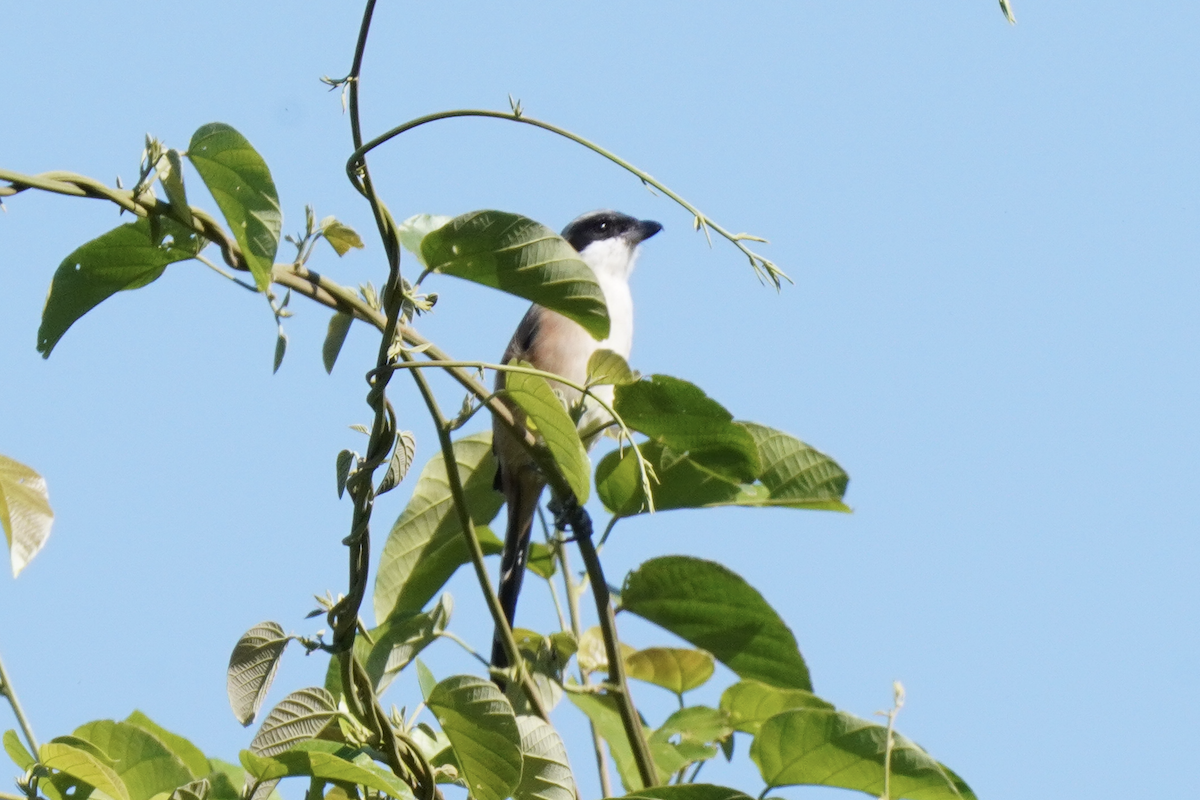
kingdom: Animalia
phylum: Chordata
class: Aves
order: Passeriformes
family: Laniidae
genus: Lanius
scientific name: Lanius schach
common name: Long-tailed shrike
